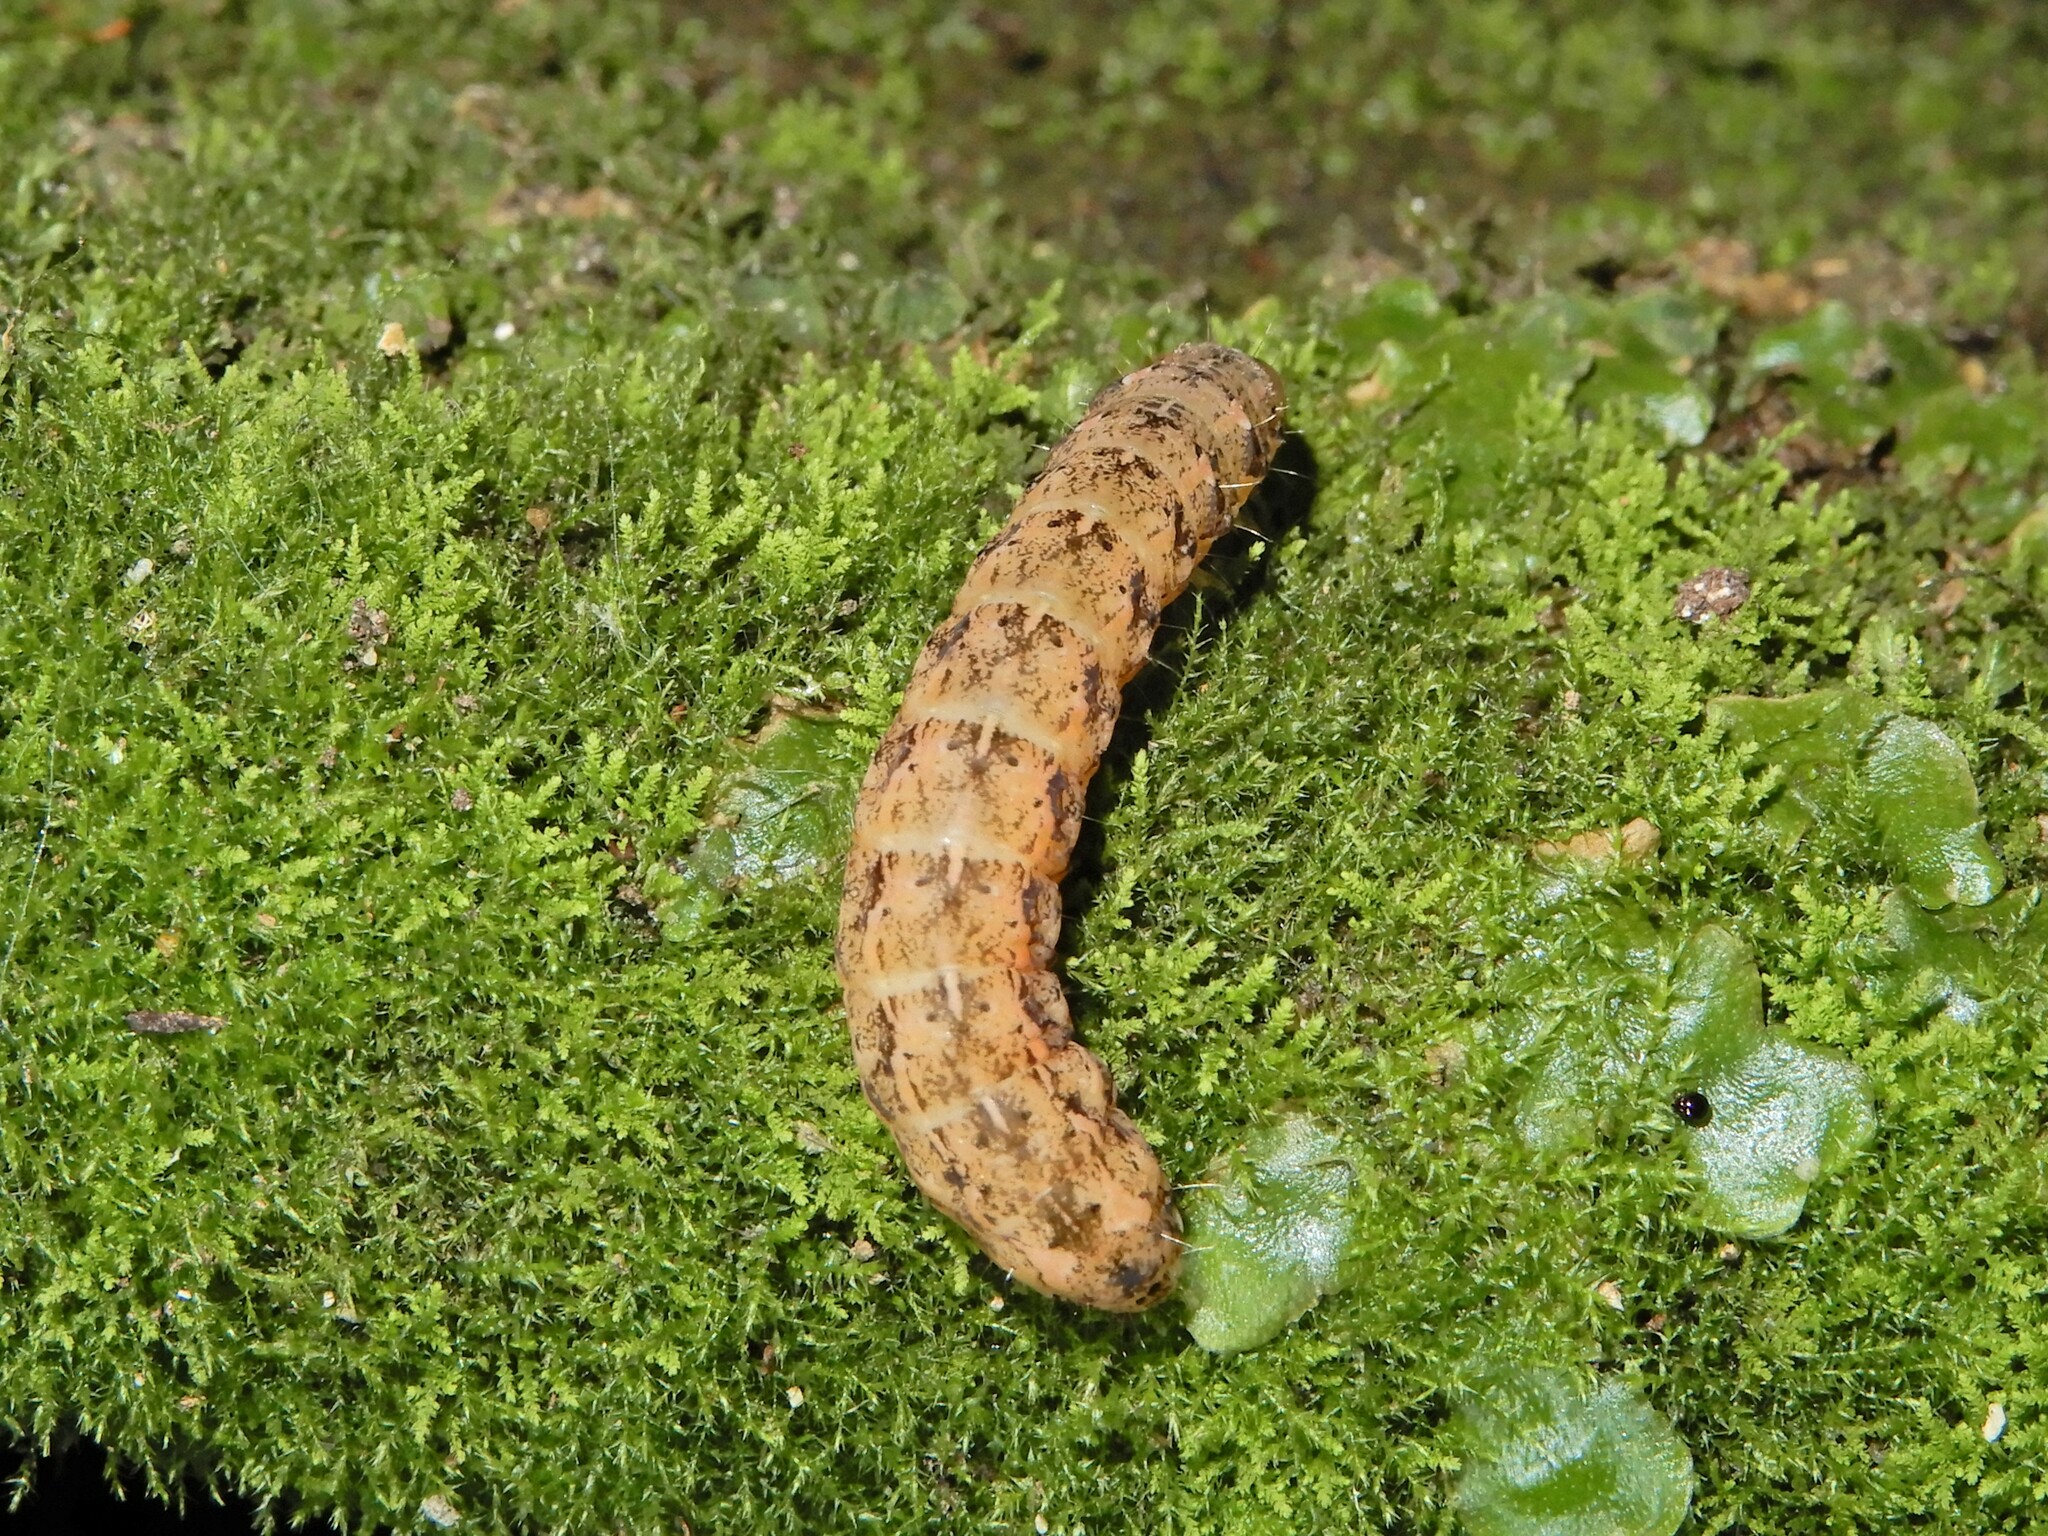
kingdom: Animalia
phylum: Arthropoda
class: Insecta
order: Lepidoptera
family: Noctuidae
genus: Feredayia
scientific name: Feredayia grammosa
